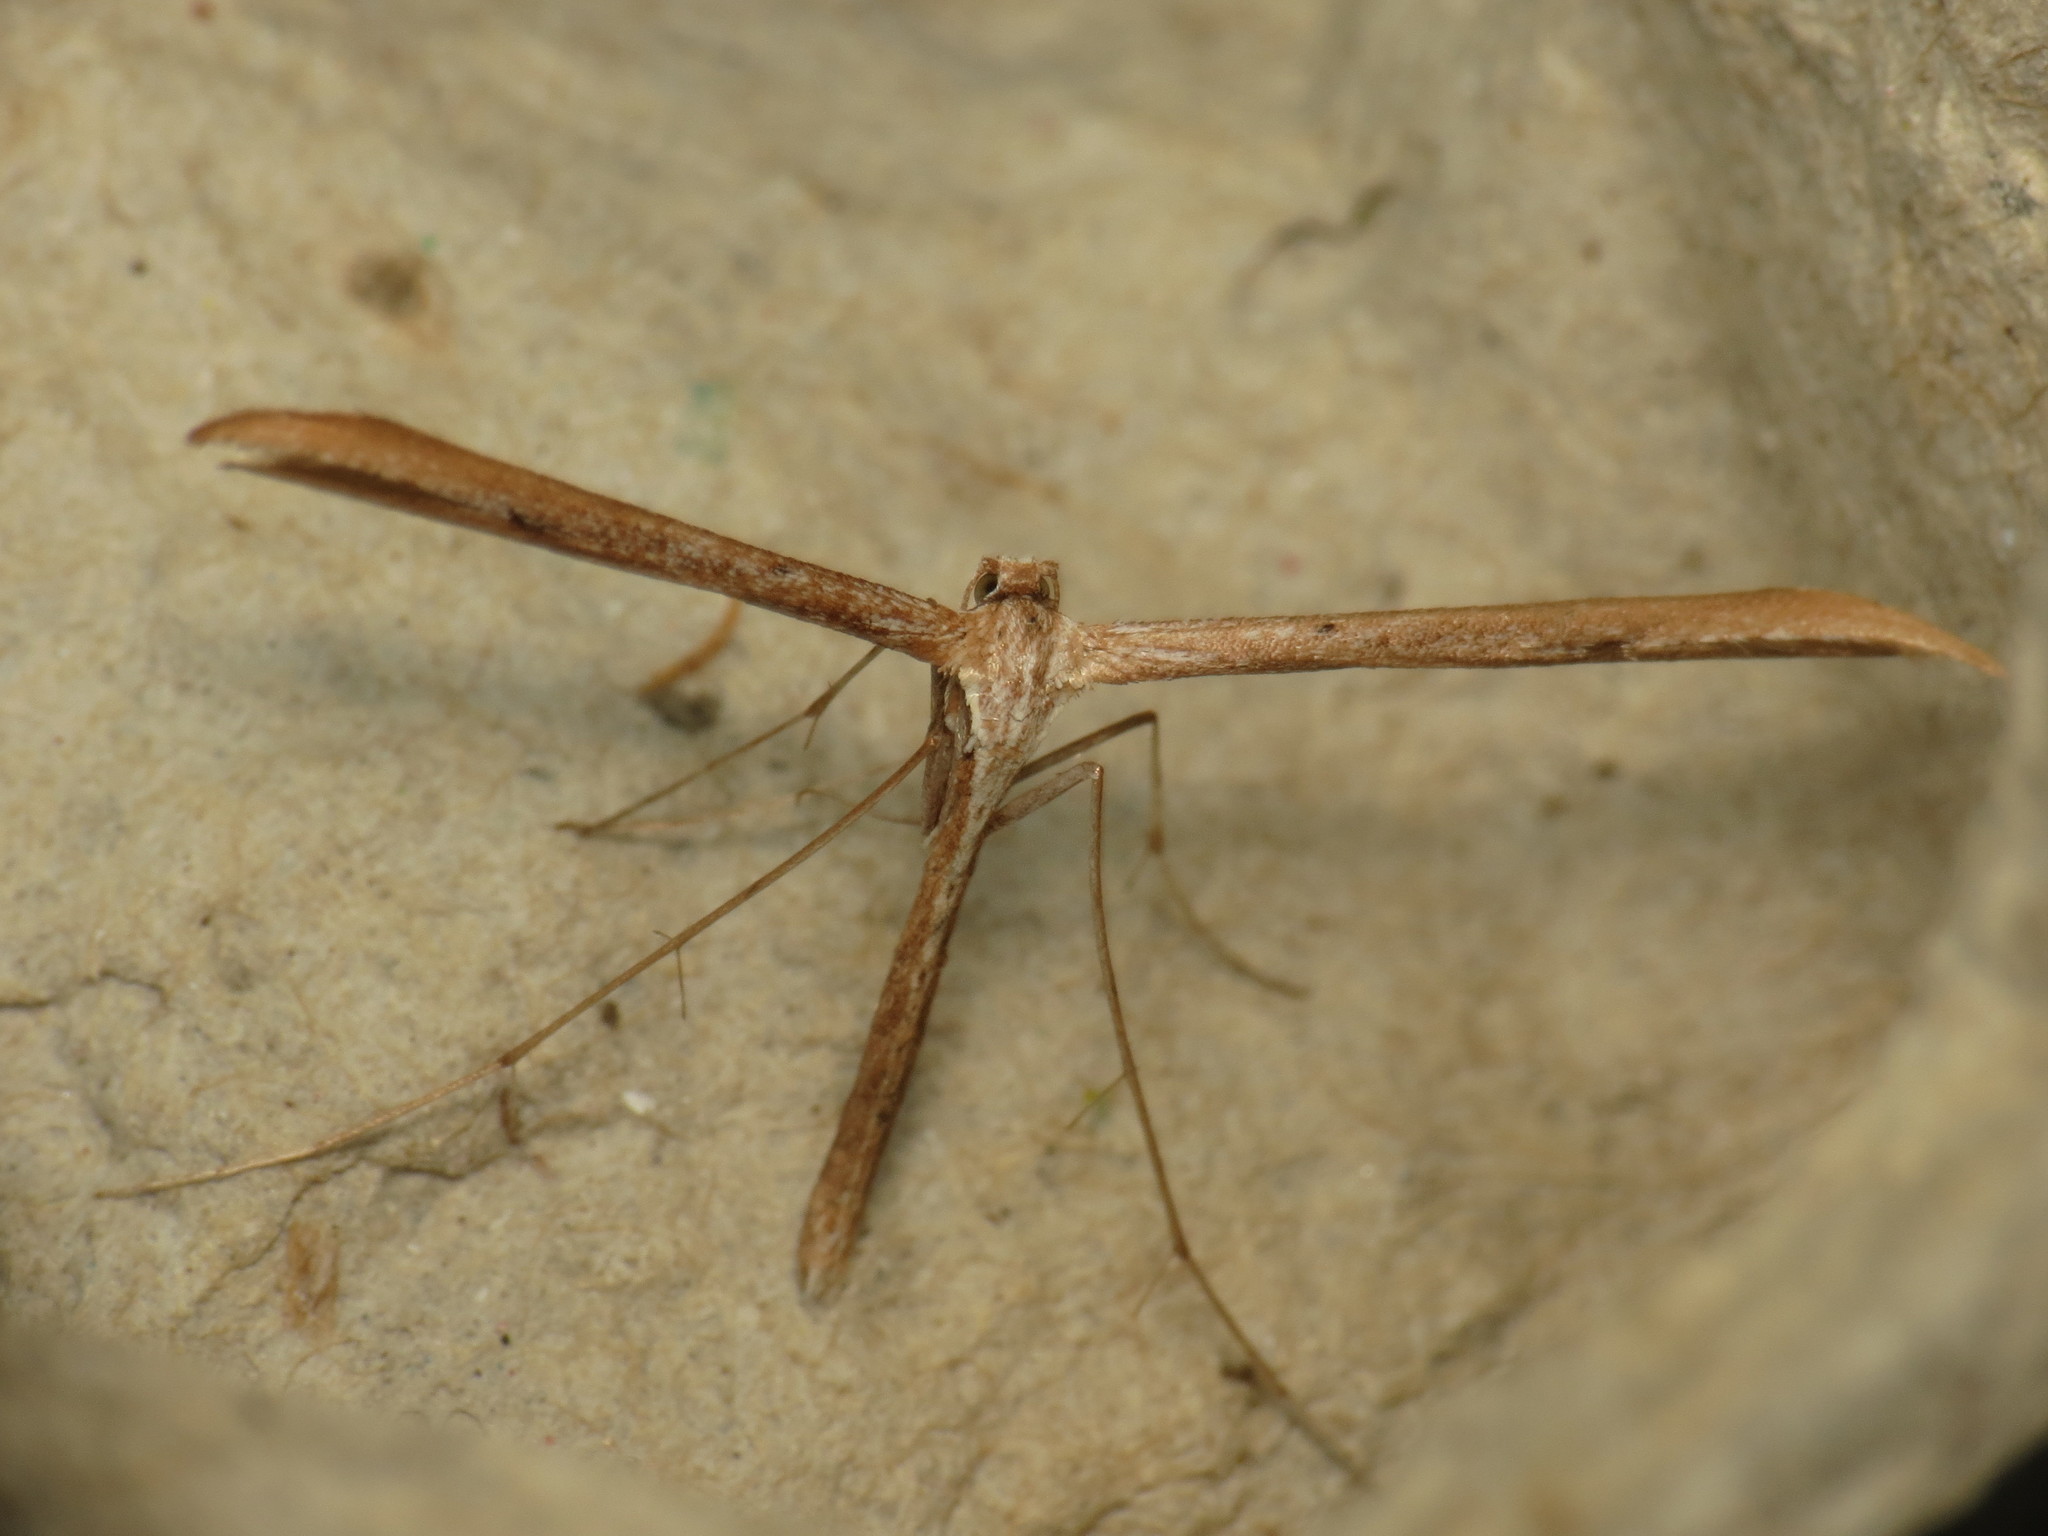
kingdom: Animalia
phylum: Arthropoda
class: Insecta
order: Lepidoptera
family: Pterophoridae
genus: Emmelina
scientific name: Emmelina monodactyla
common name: Common plume
